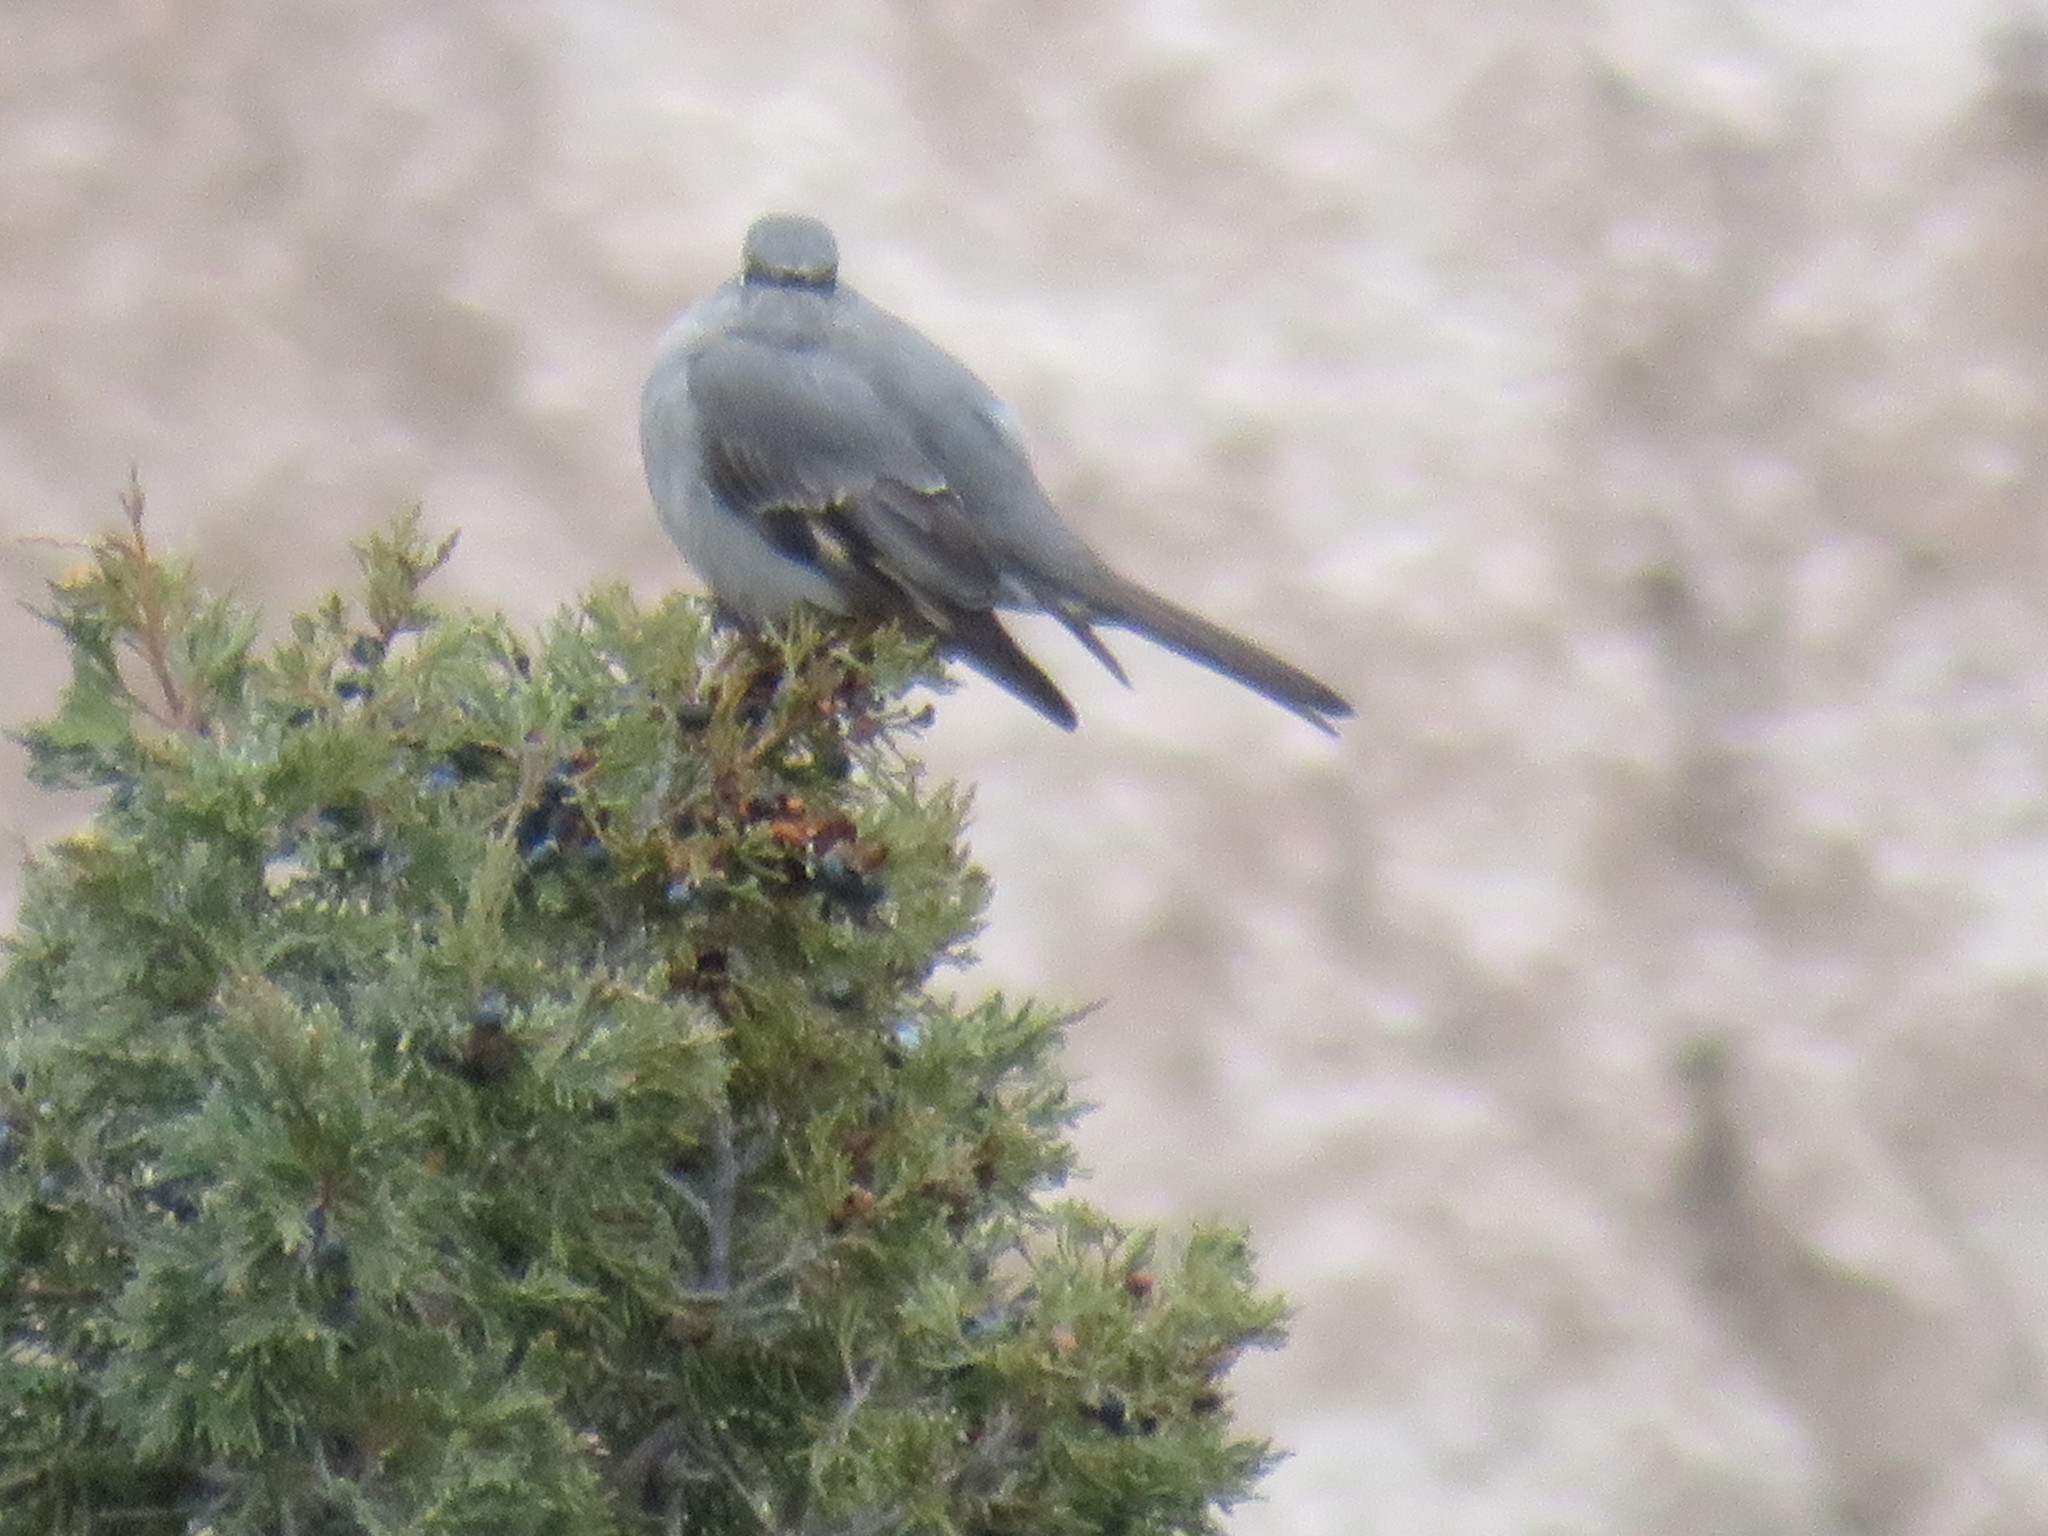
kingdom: Animalia
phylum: Chordata
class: Aves
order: Passeriformes
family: Turdidae
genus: Myadestes
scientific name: Myadestes townsendi
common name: Townsend's solitaire
